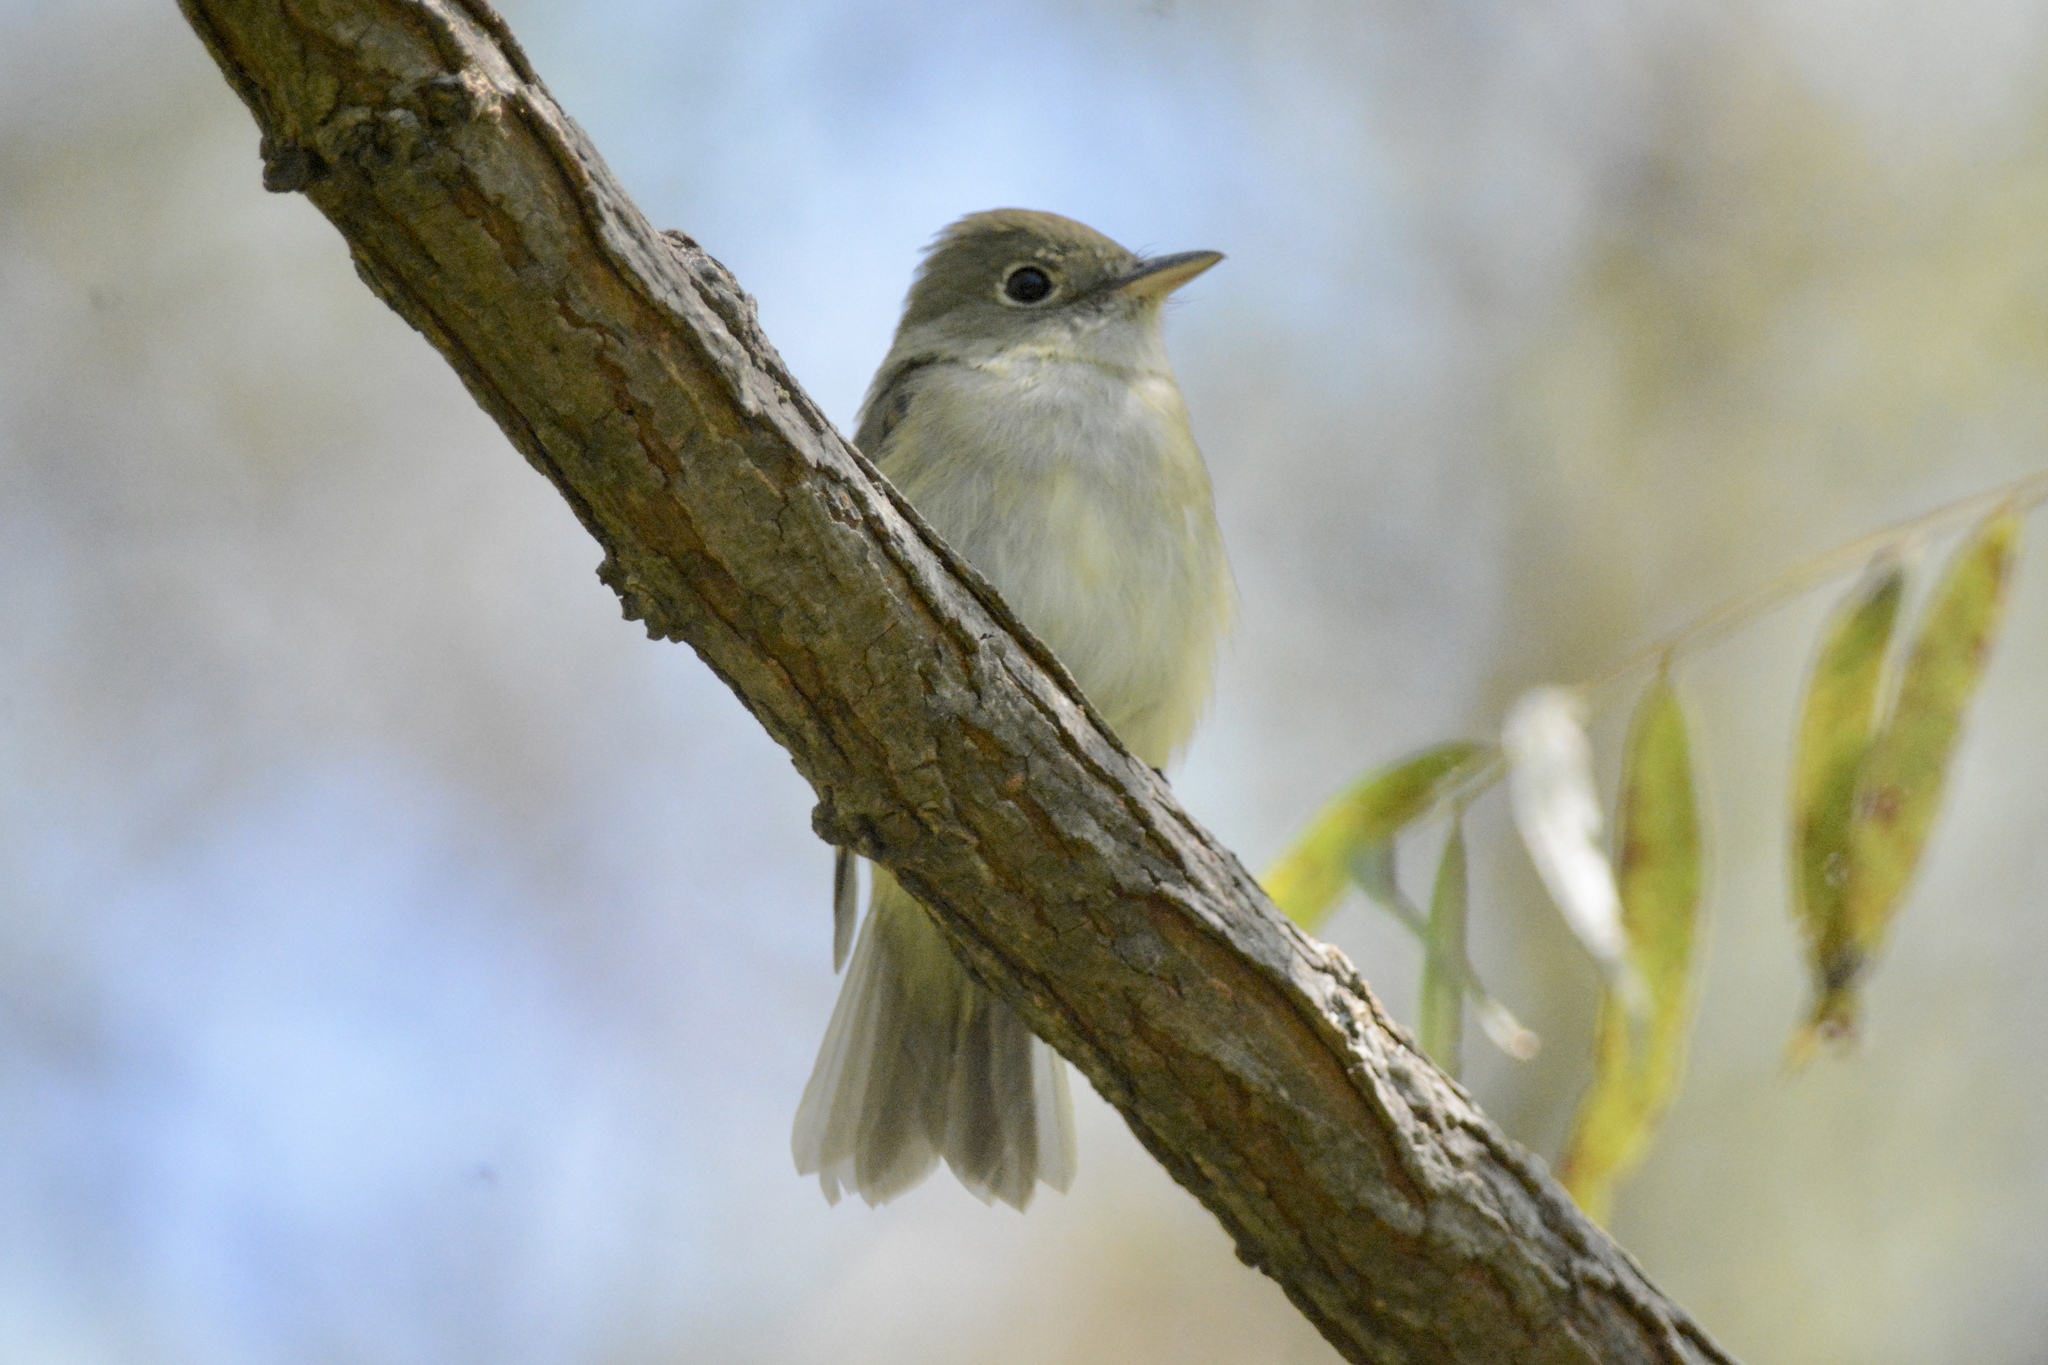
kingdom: Animalia
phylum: Chordata
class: Aves
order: Passeriformes
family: Tyrannidae
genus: Empidonax
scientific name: Empidonax virescens
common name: Acadian flycatcher
